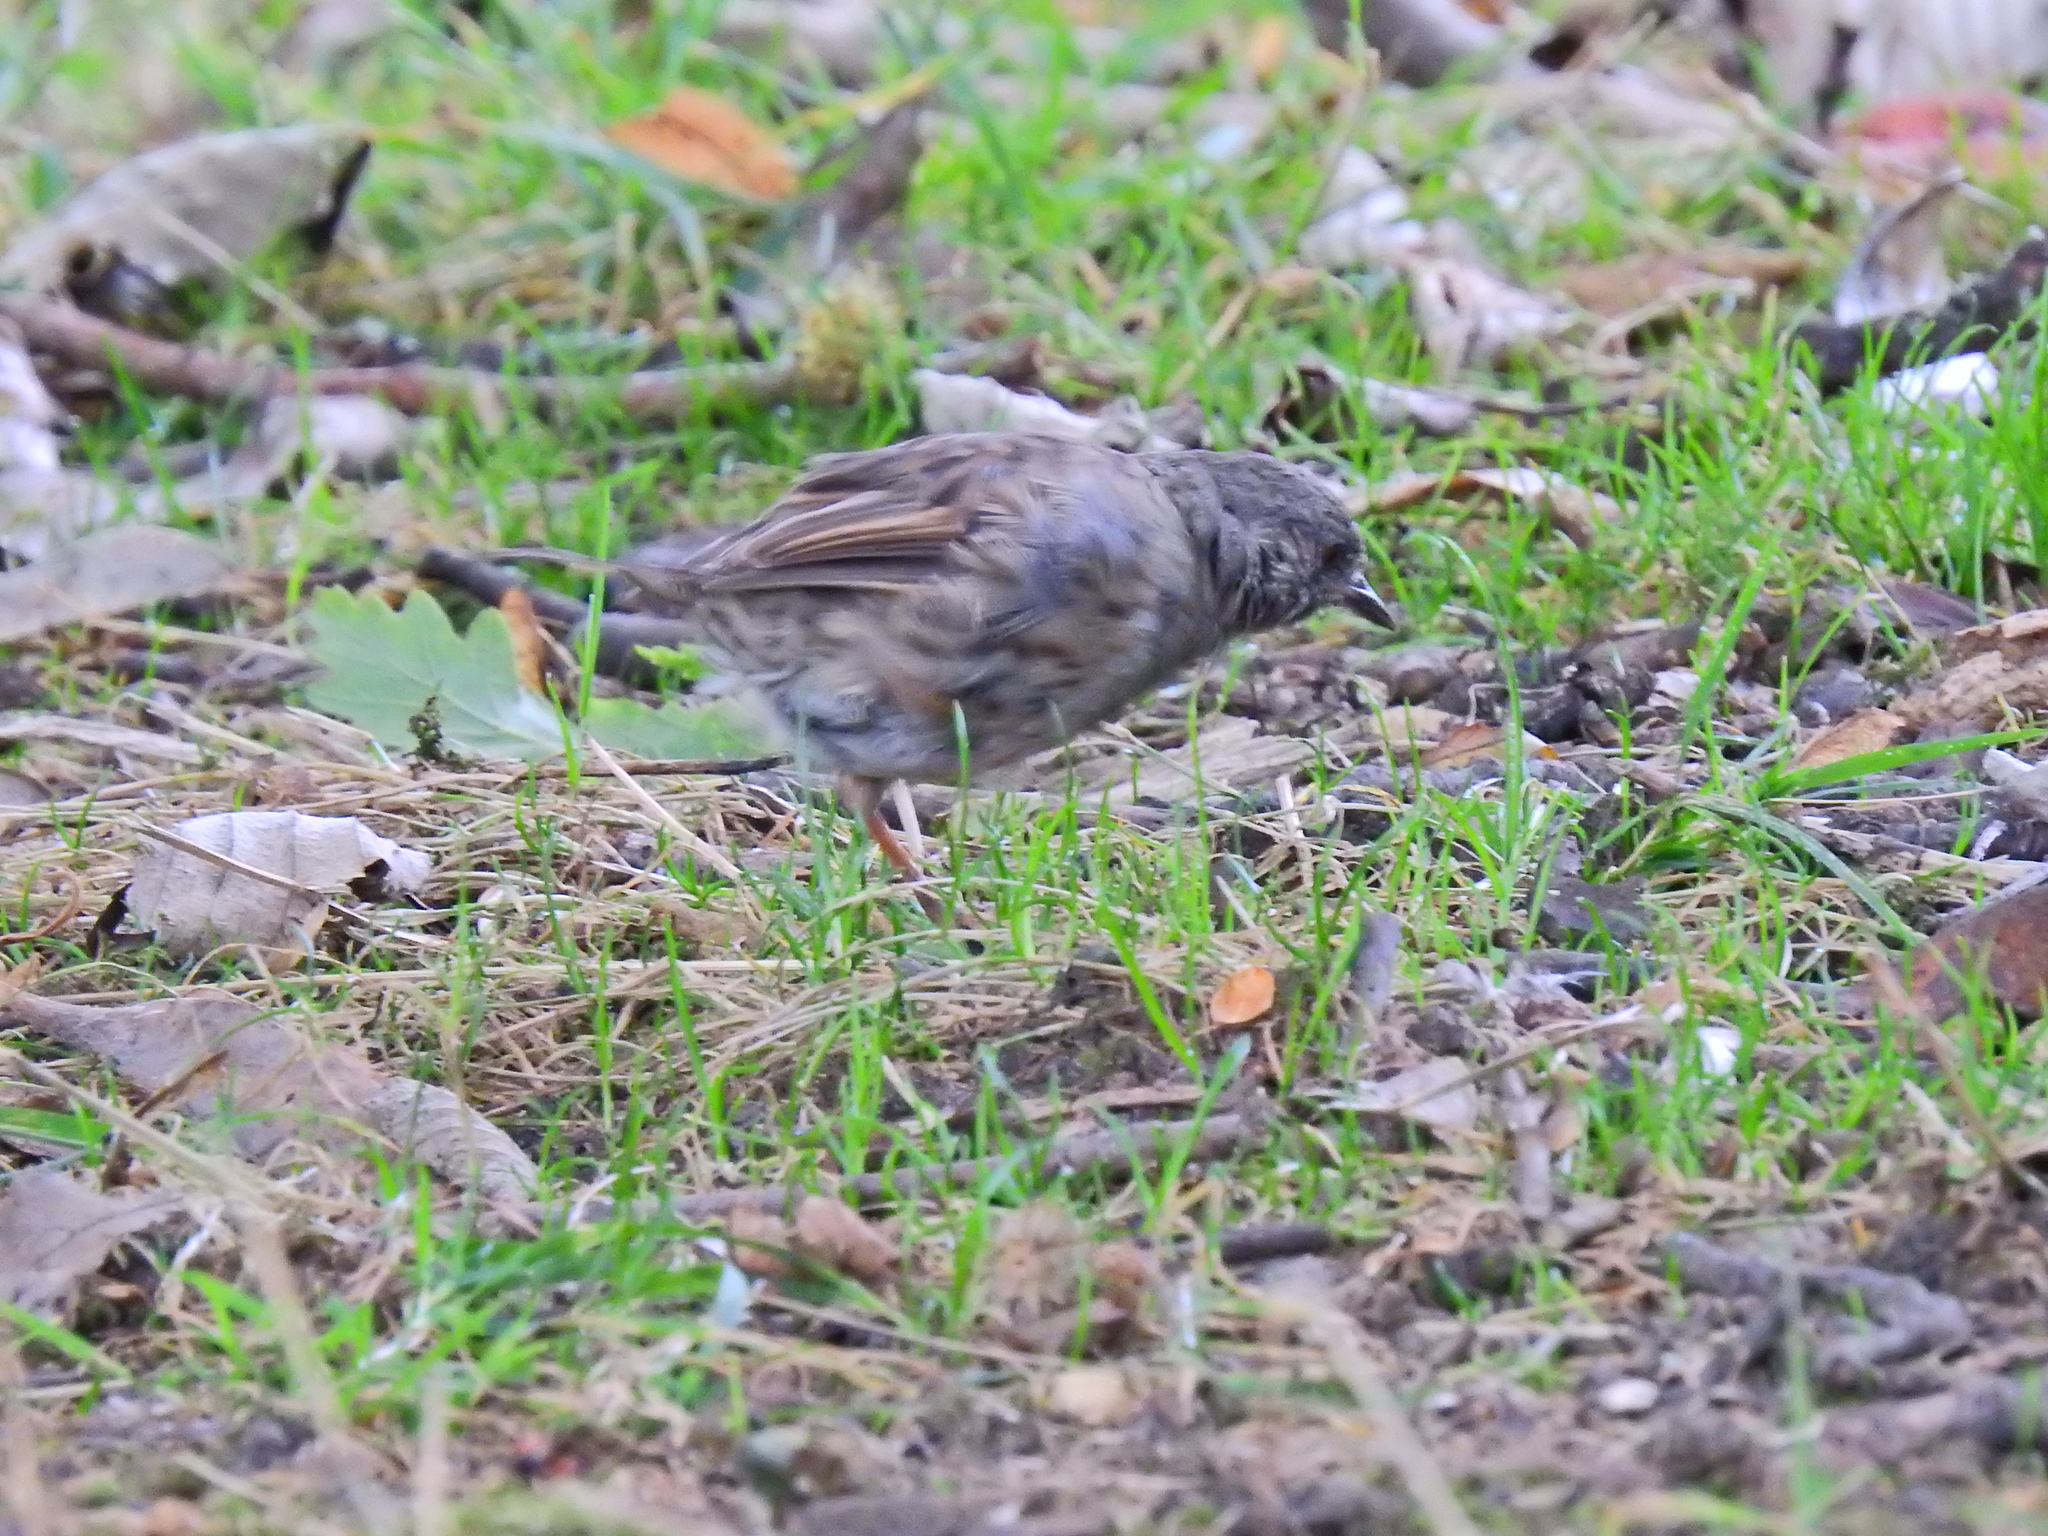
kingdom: Animalia
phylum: Chordata
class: Aves
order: Passeriformes
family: Prunellidae
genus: Prunella
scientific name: Prunella modularis
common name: Dunnock
